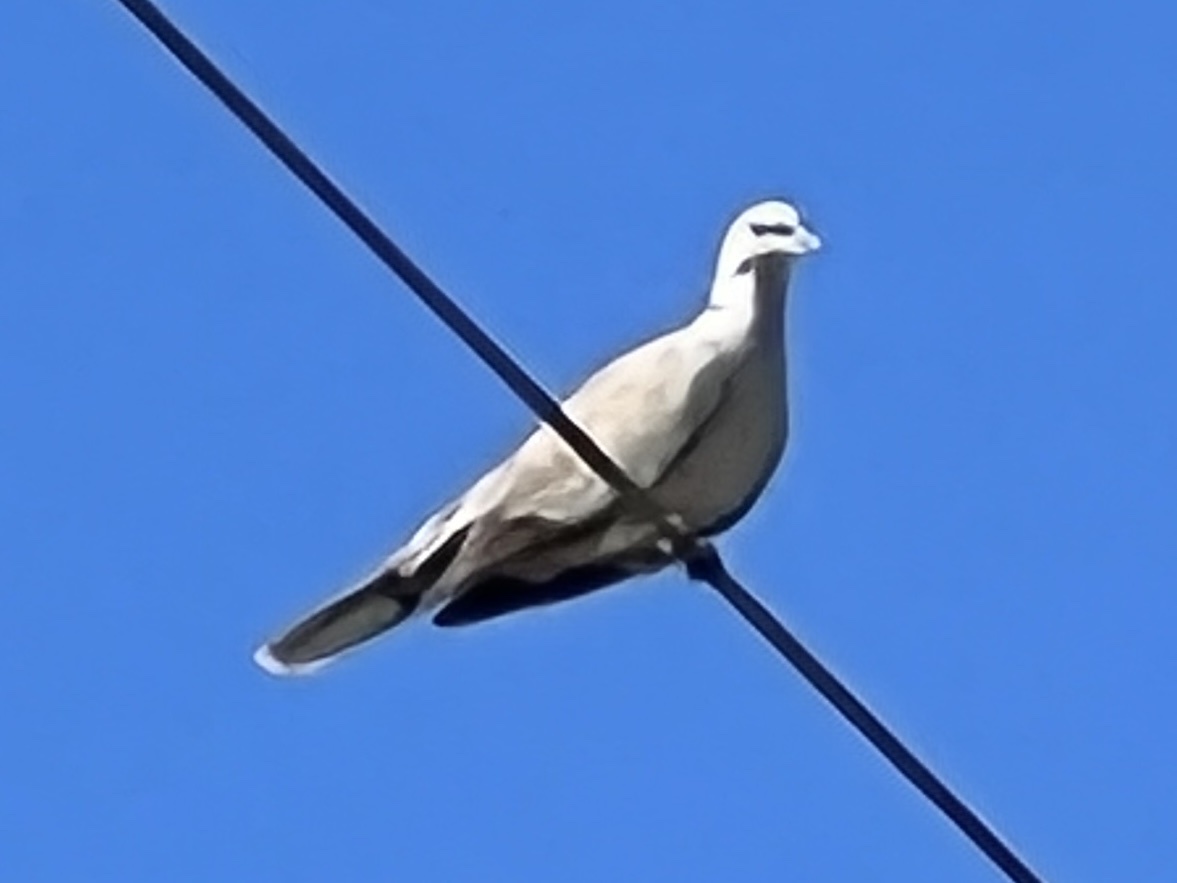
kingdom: Animalia
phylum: Chordata
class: Aves
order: Columbiformes
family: Columbidae
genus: Streptopelia
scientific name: Streptopelia decaocto
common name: Eurasian collared dove
